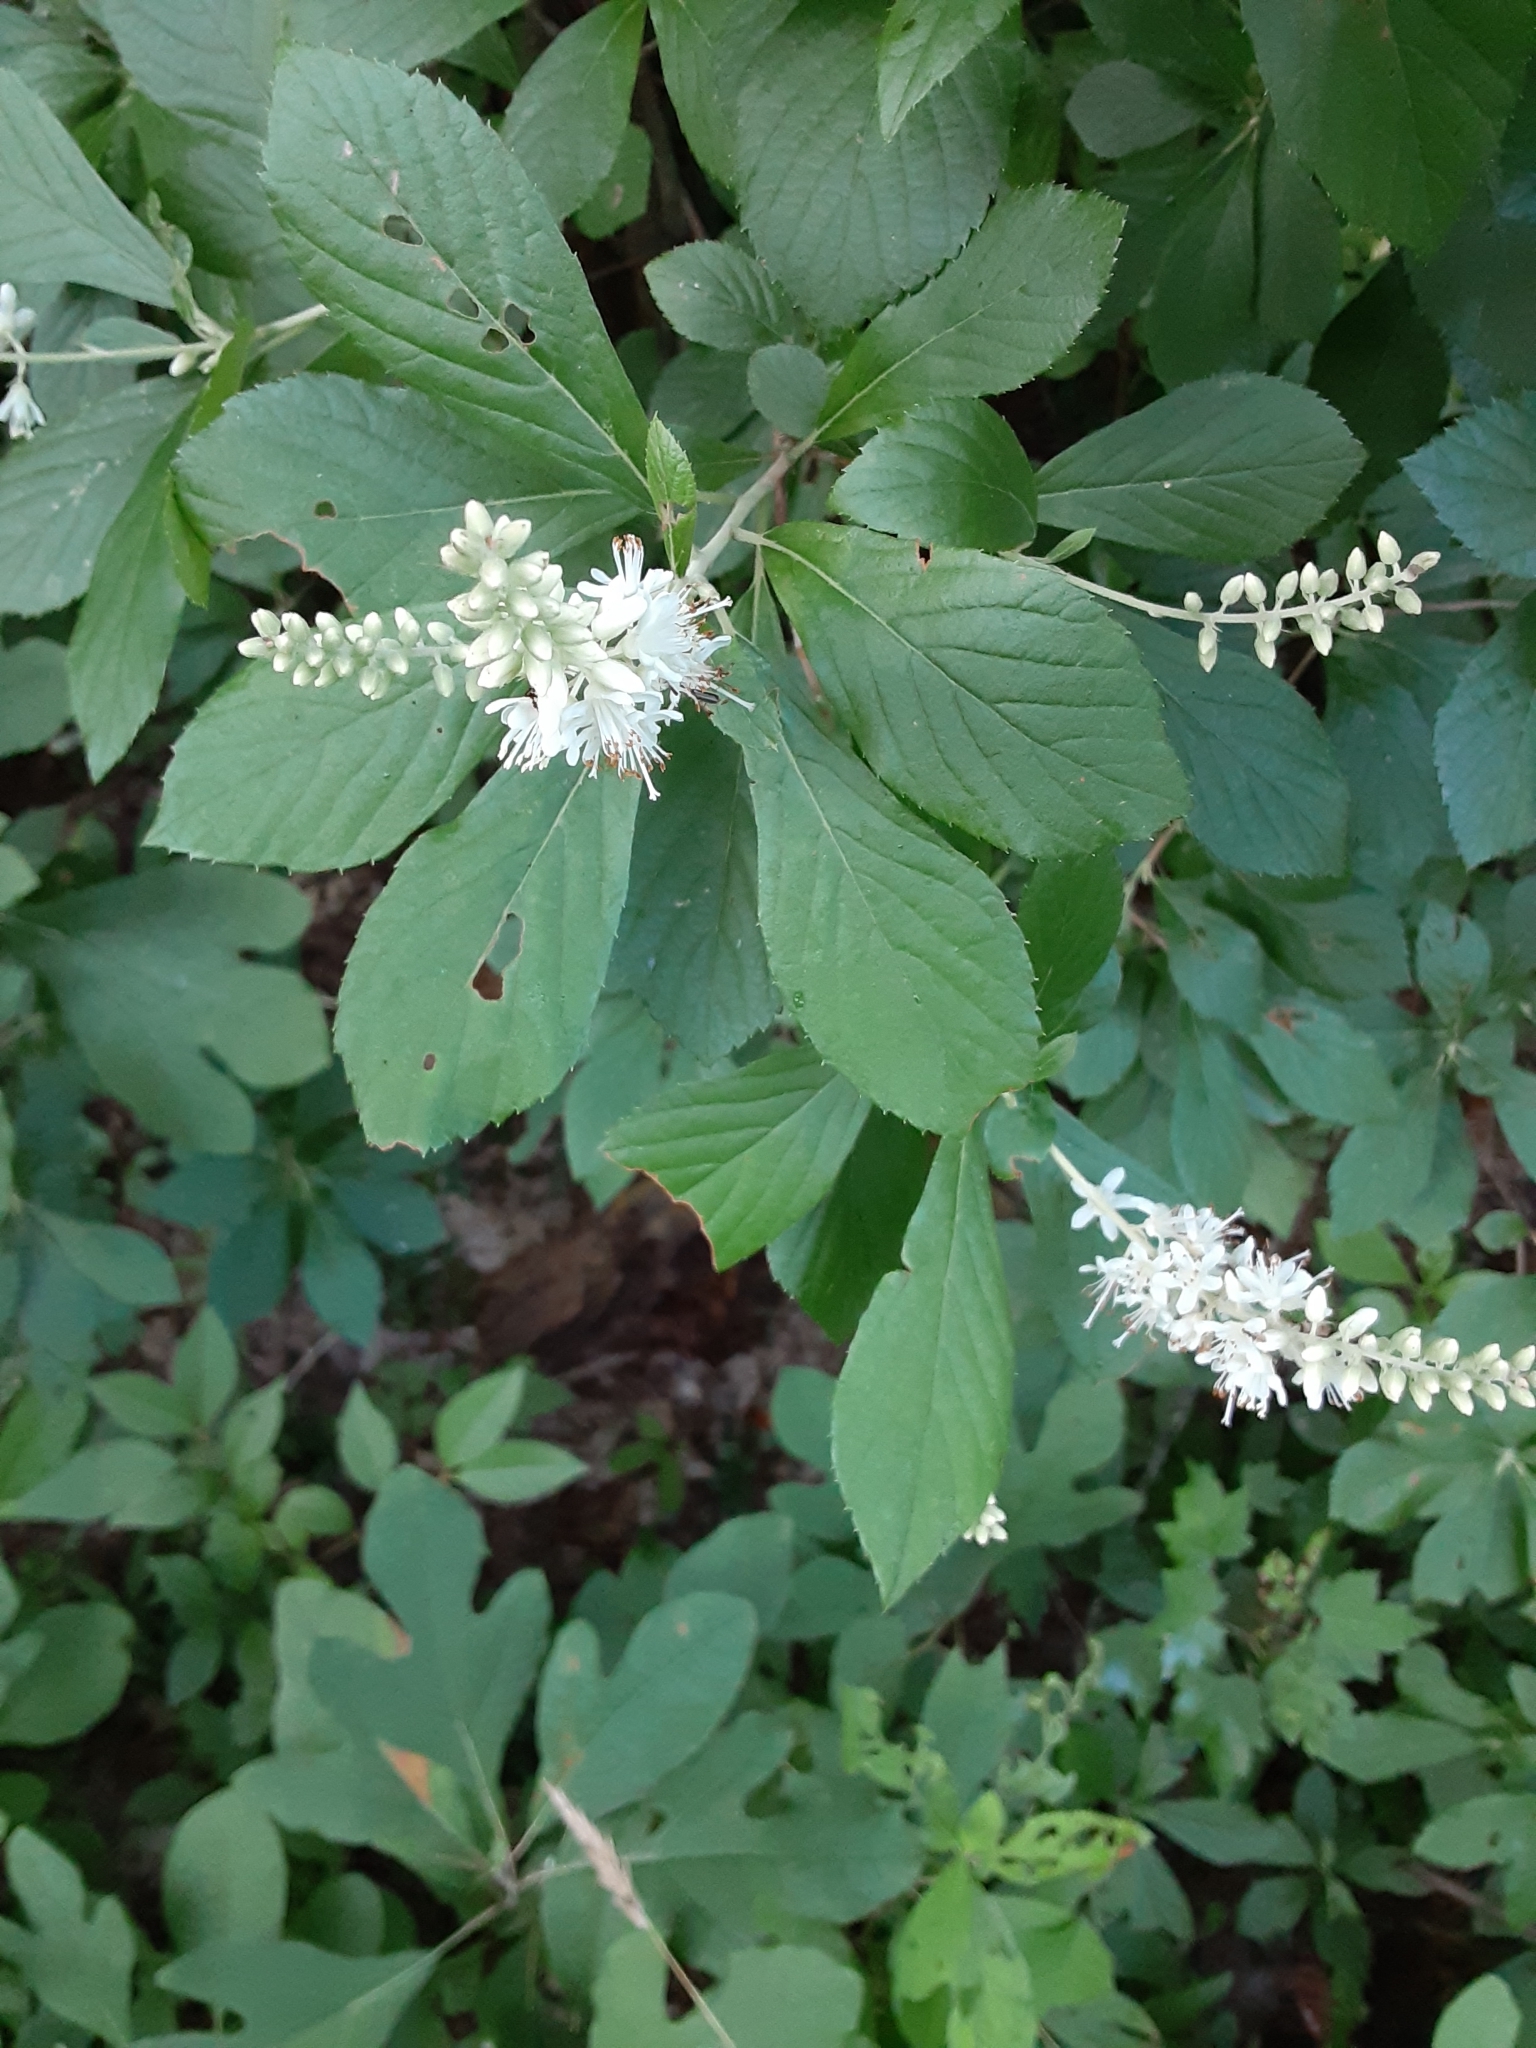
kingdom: Plantae
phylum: Tracheophyta
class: Magnoliopsida
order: Ericales
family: Clethraceae
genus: Clethra
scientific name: Clethra alnifolia
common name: Sweet pepperbush
